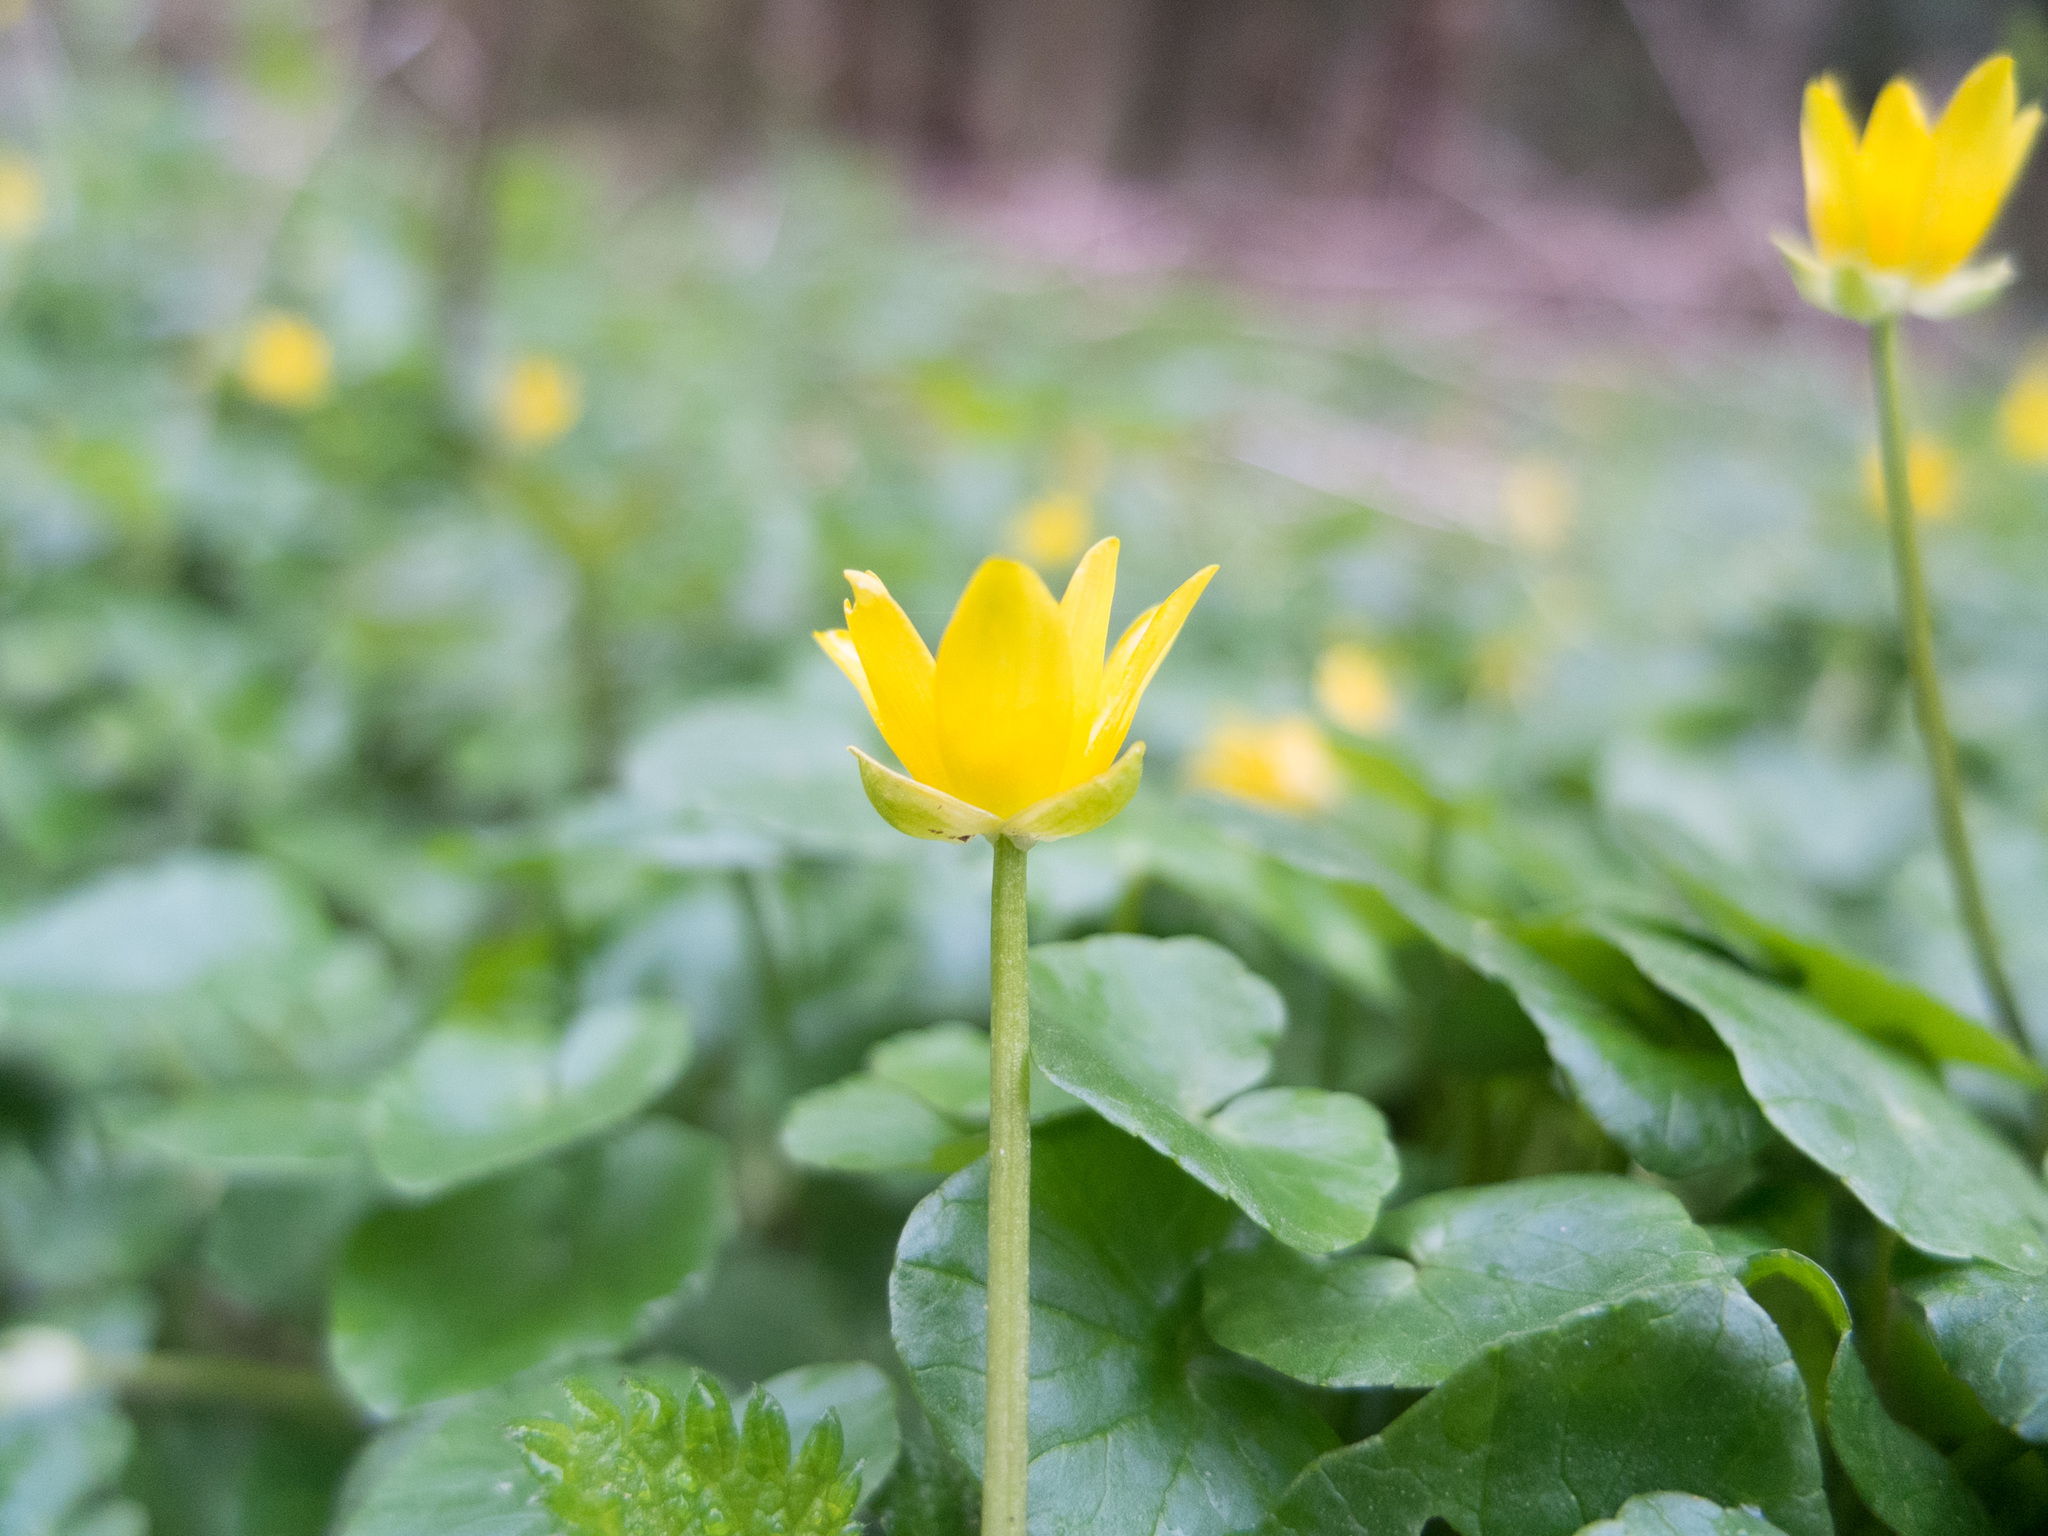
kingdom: Plantae
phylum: Tracheophyta
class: Magnoliopsida
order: Ranunculales
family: Ranunculaceae
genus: Ficaria
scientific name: Ficaria verna
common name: Lesser celandine
